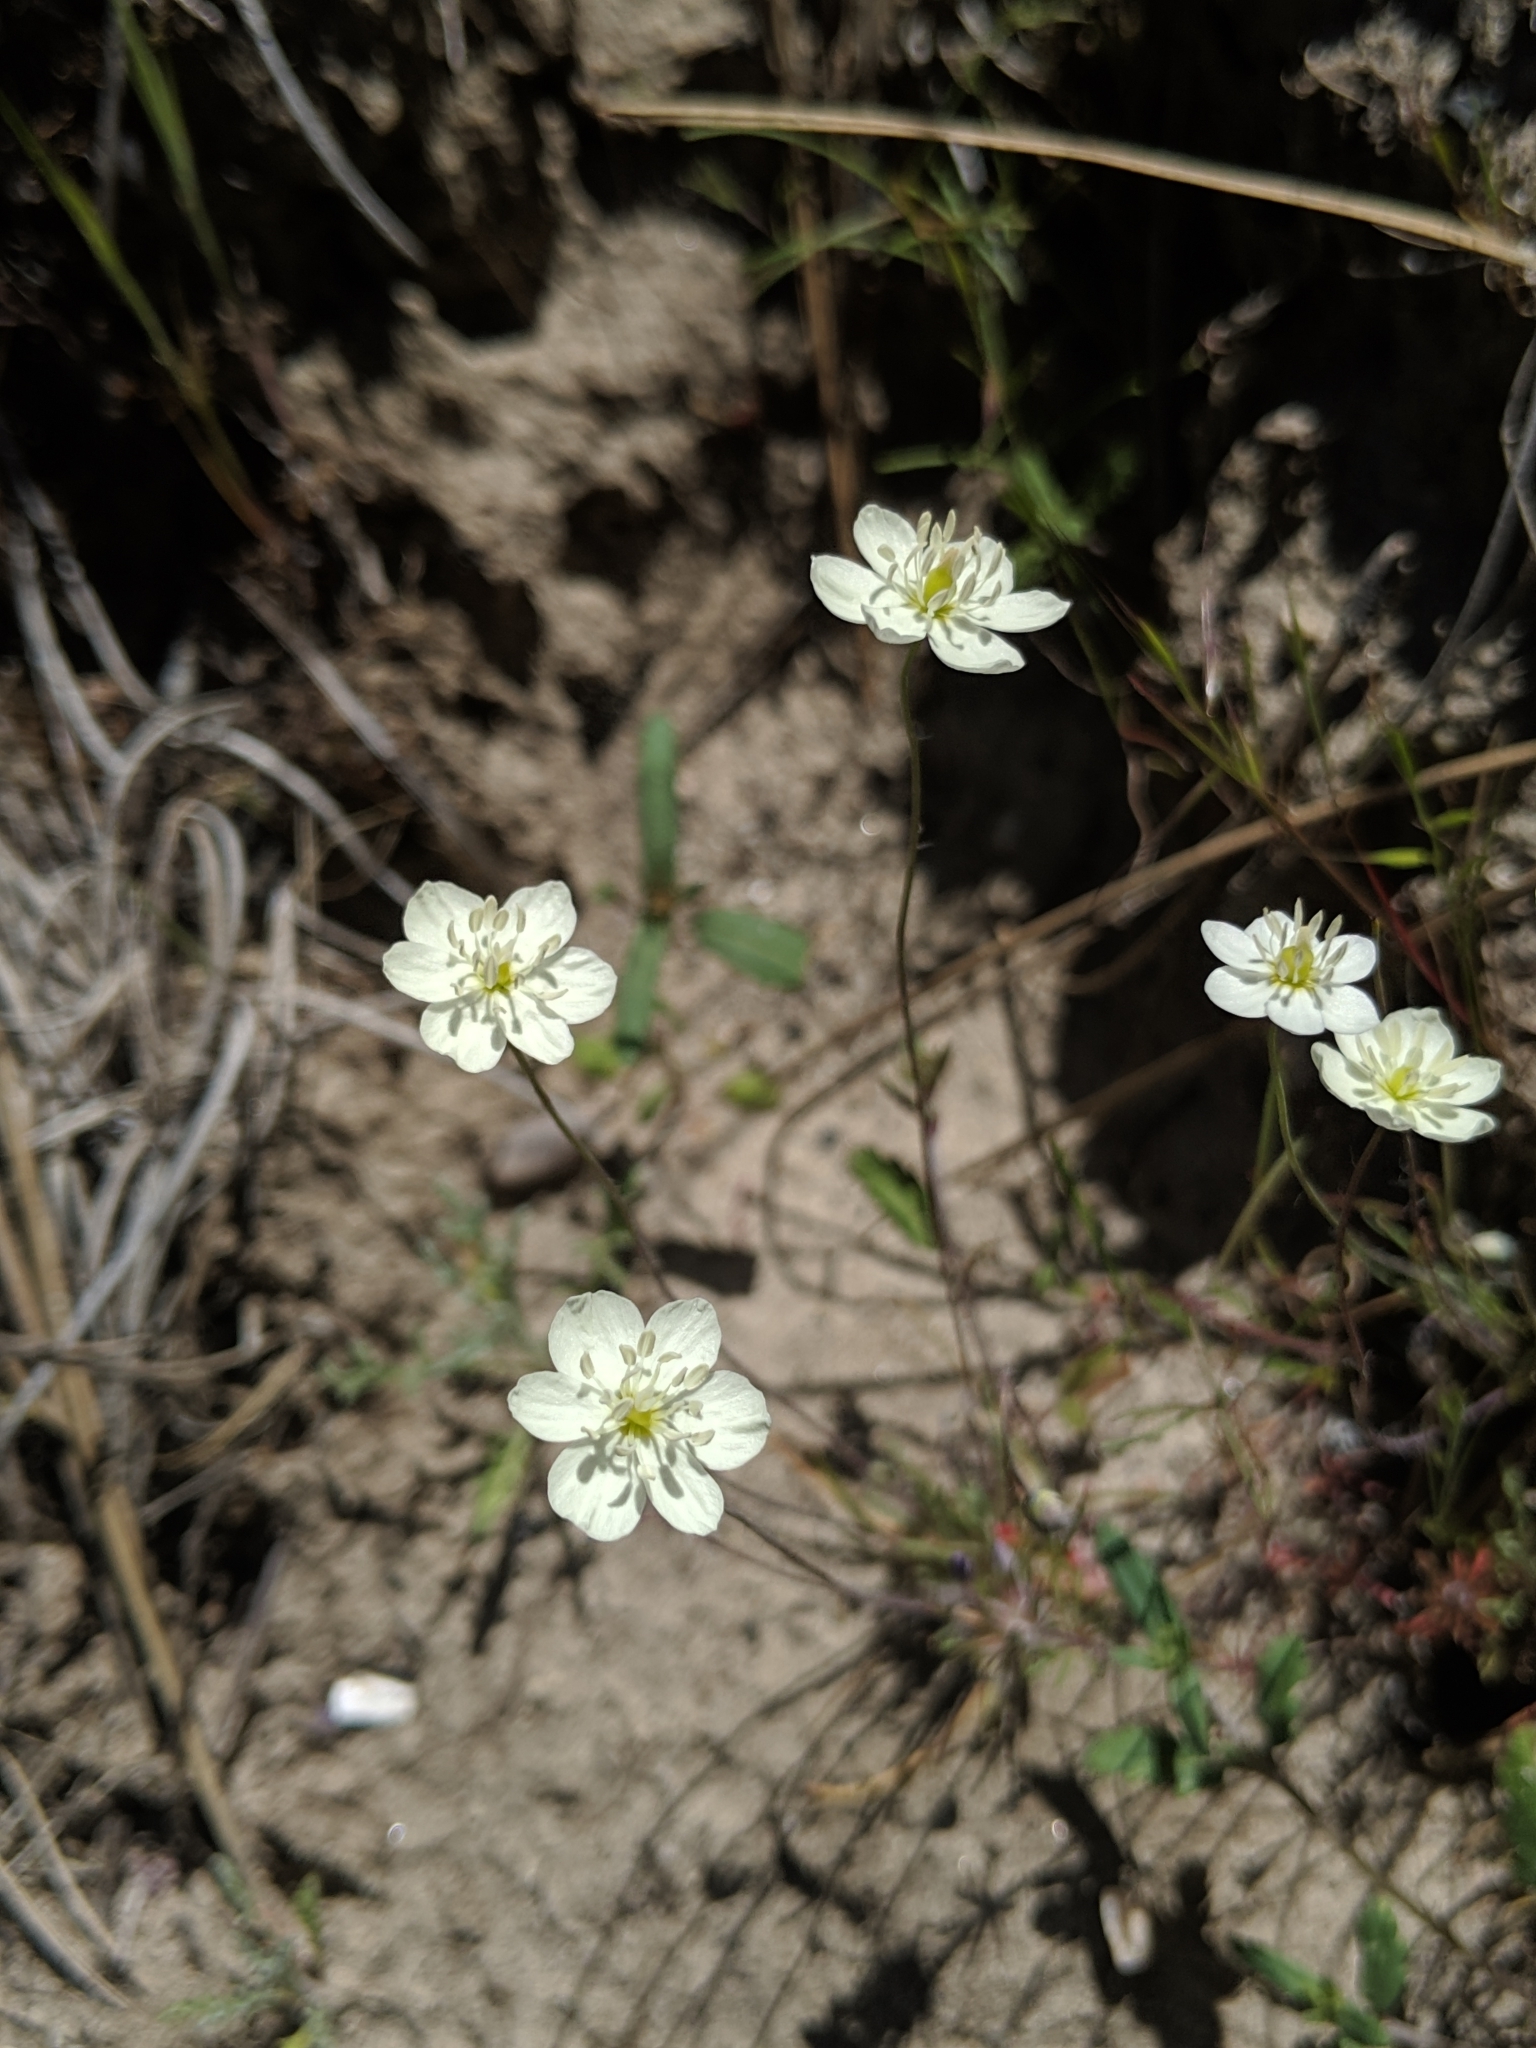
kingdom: Plantae
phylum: Tracheophyta
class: Magnoliopsida
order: Ranunculales
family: Papaveraceae
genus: Platystigma
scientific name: Platystigma lineare
